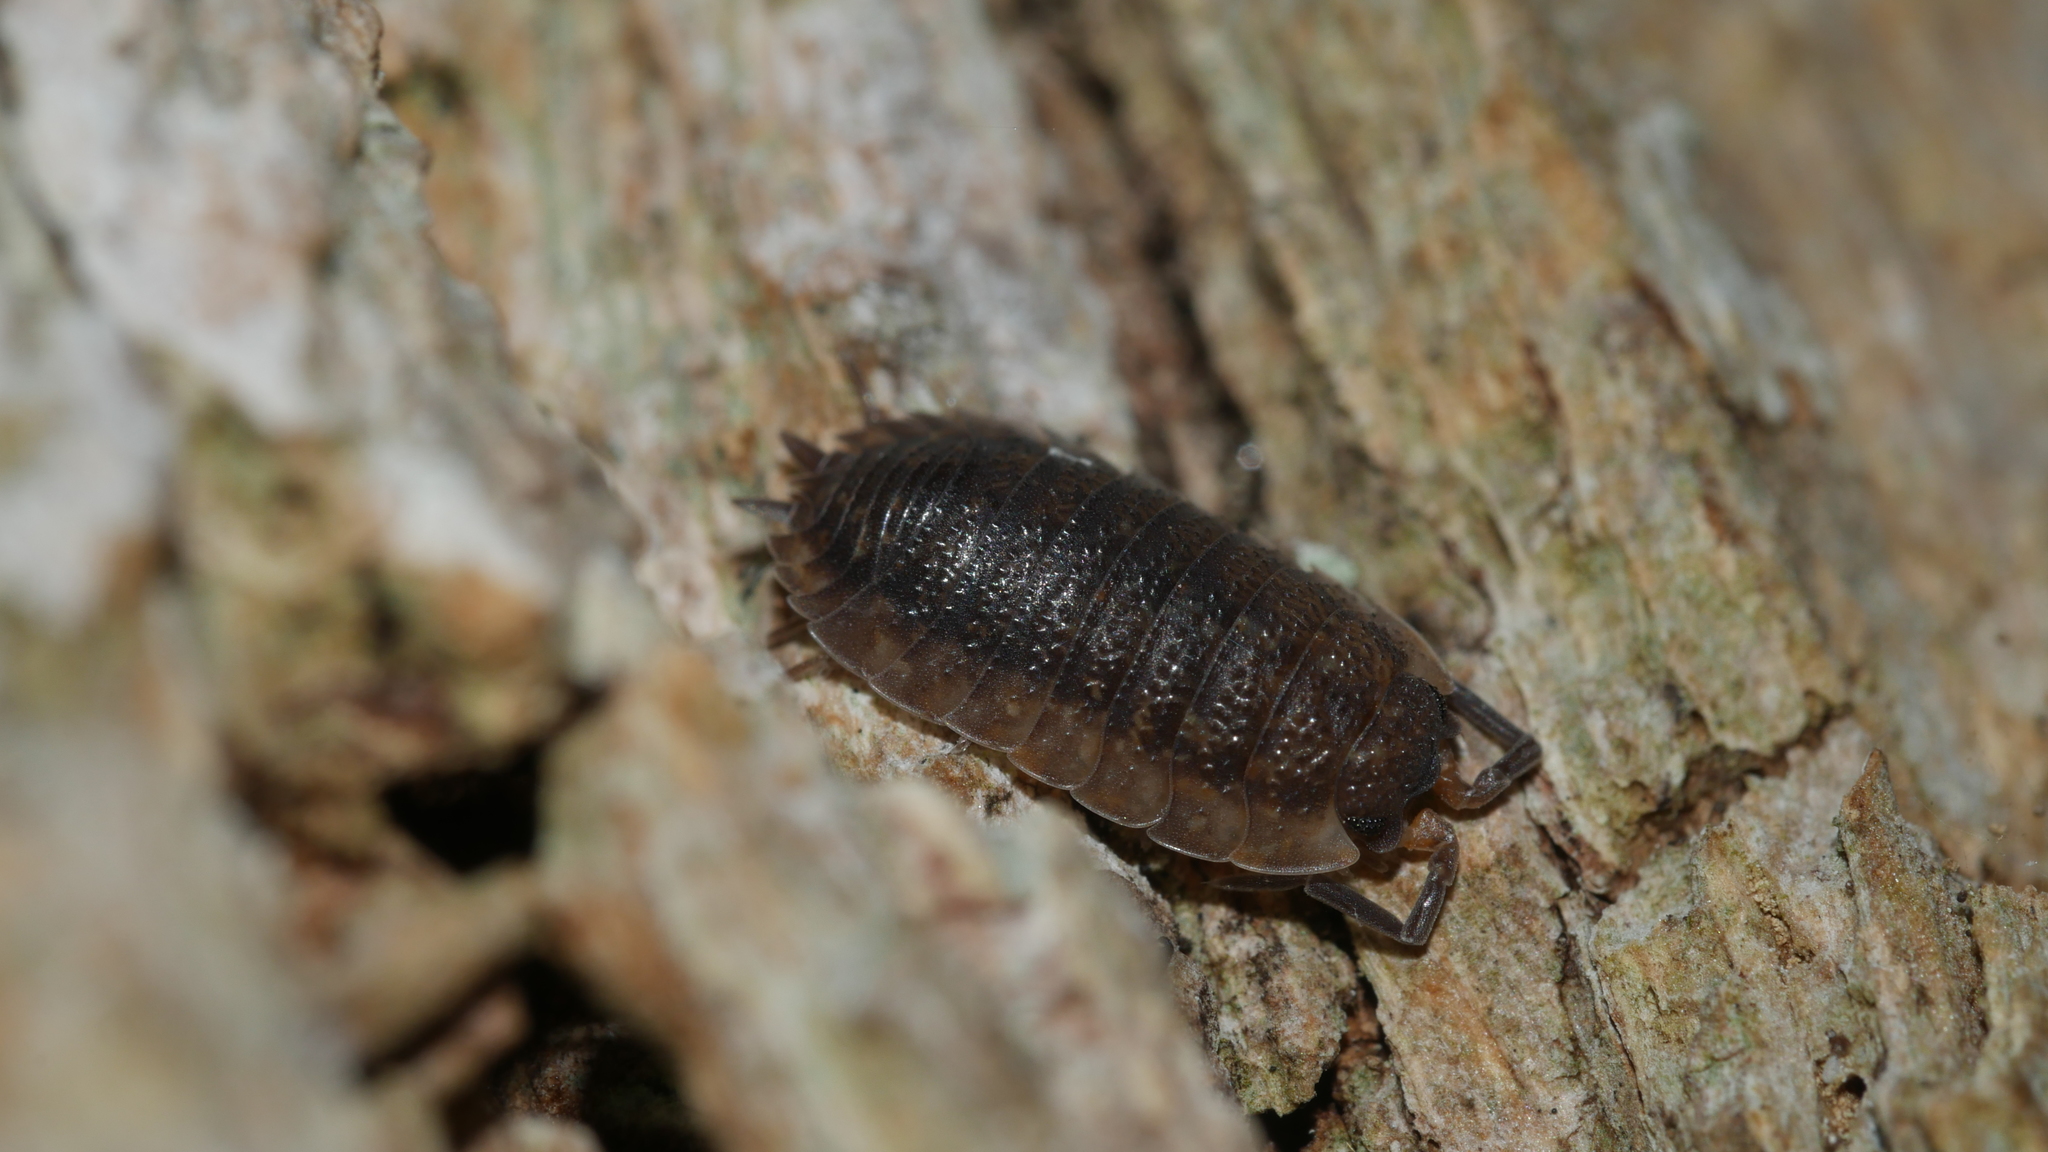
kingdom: Animalia
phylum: Arthropoda
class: Malacostraca
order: Isopoda
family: Porcellionidae
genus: Porcellio
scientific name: Porcellio scaber
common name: Common rough woodlouse
